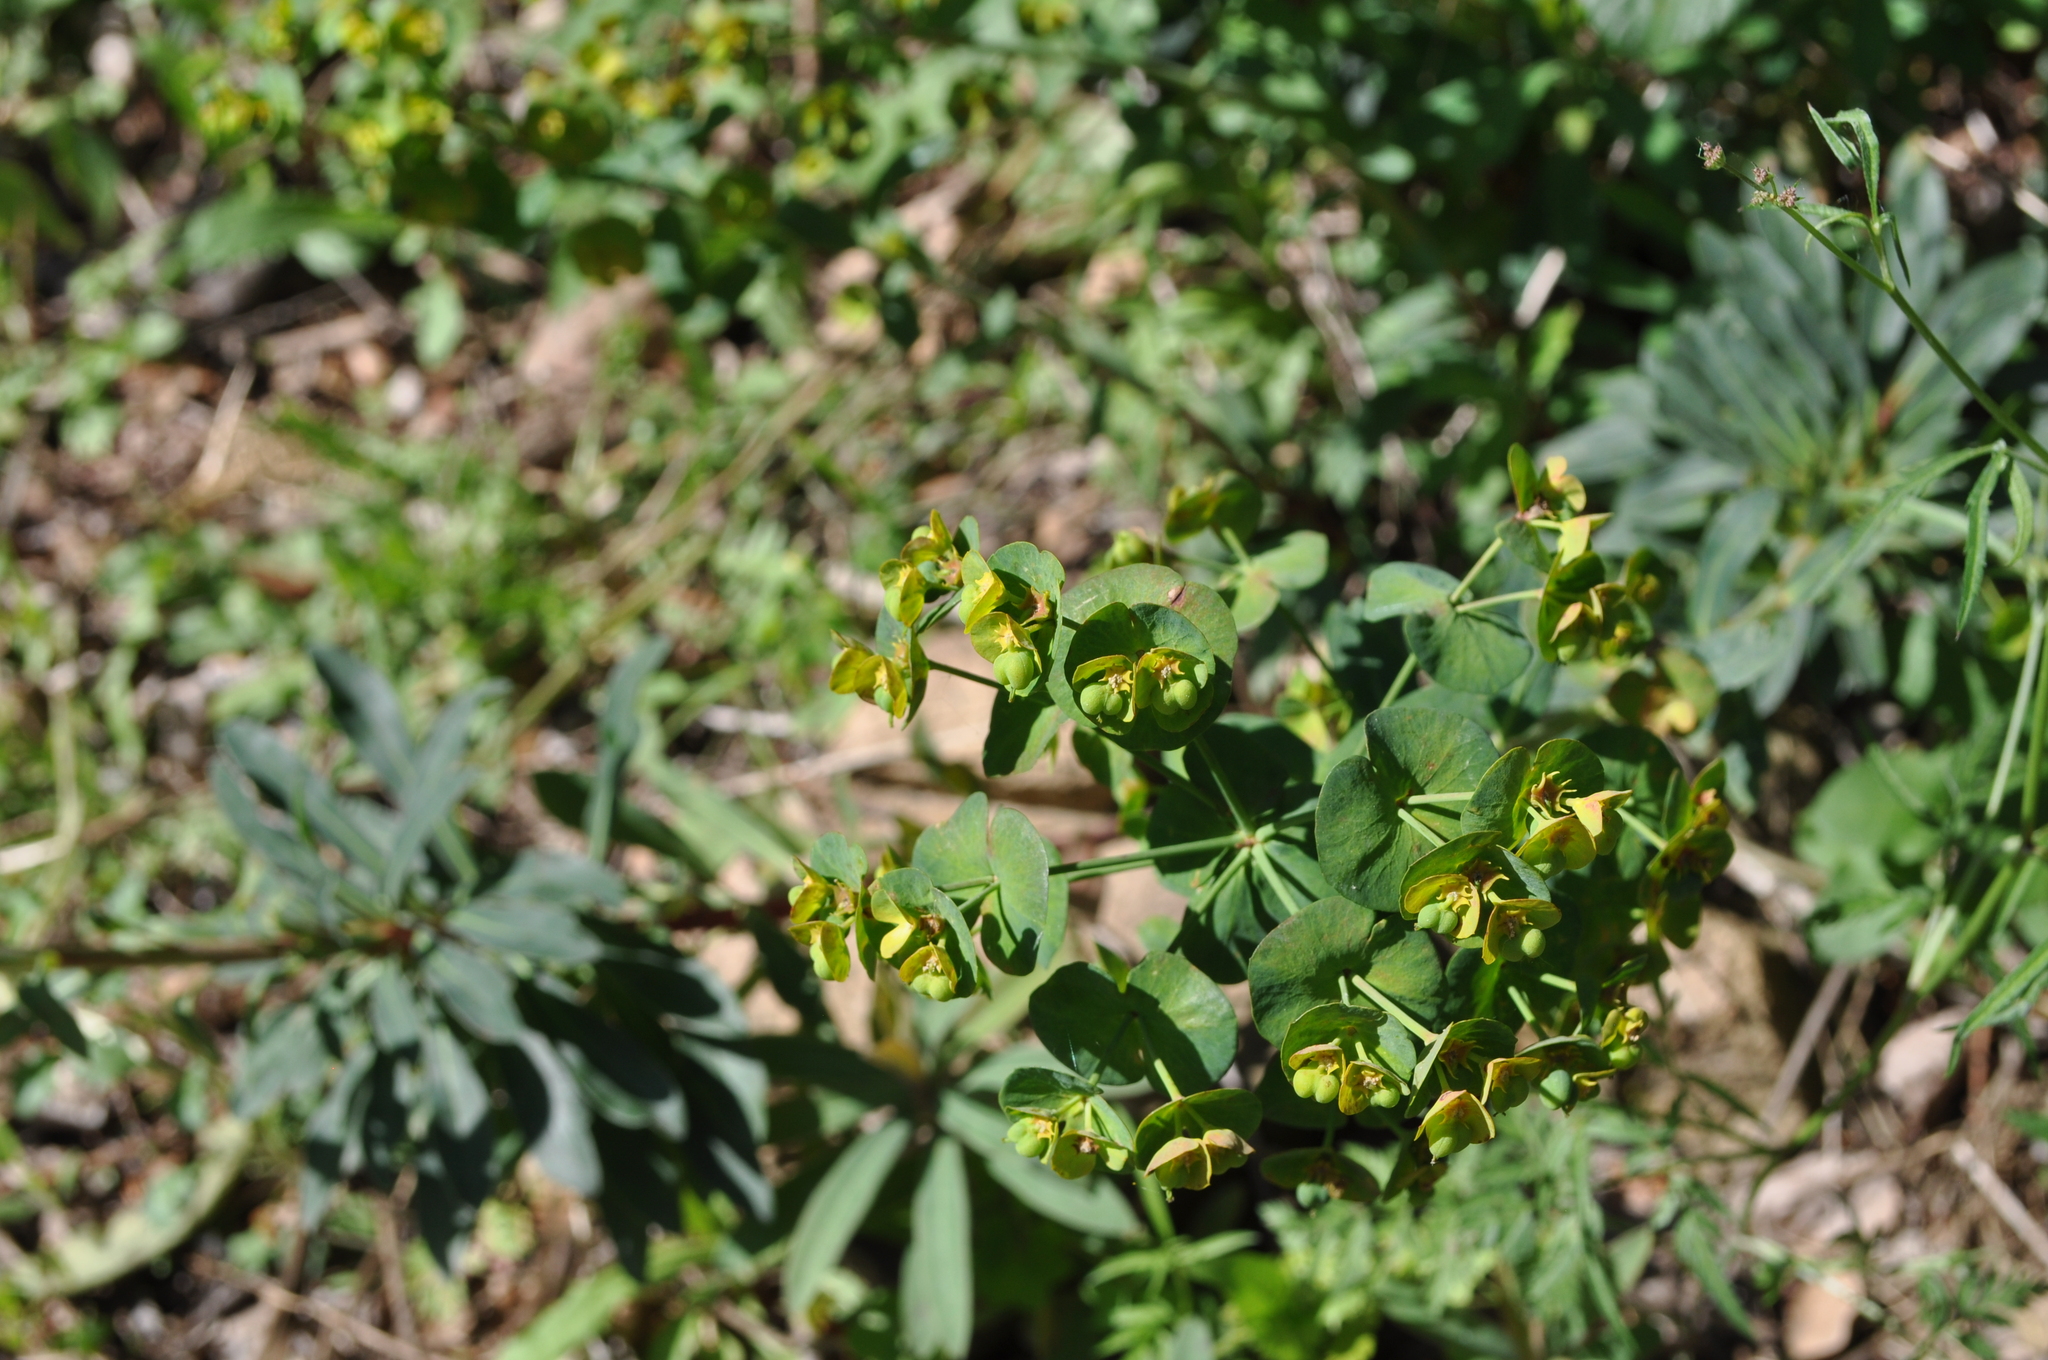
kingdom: Plantae
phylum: Tracheophyta
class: Magnoliopsida
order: Malpighiales
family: Euphorbiaceae
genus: Euphorbia
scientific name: Euphorbia amygdaloides
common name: Wood spurge
